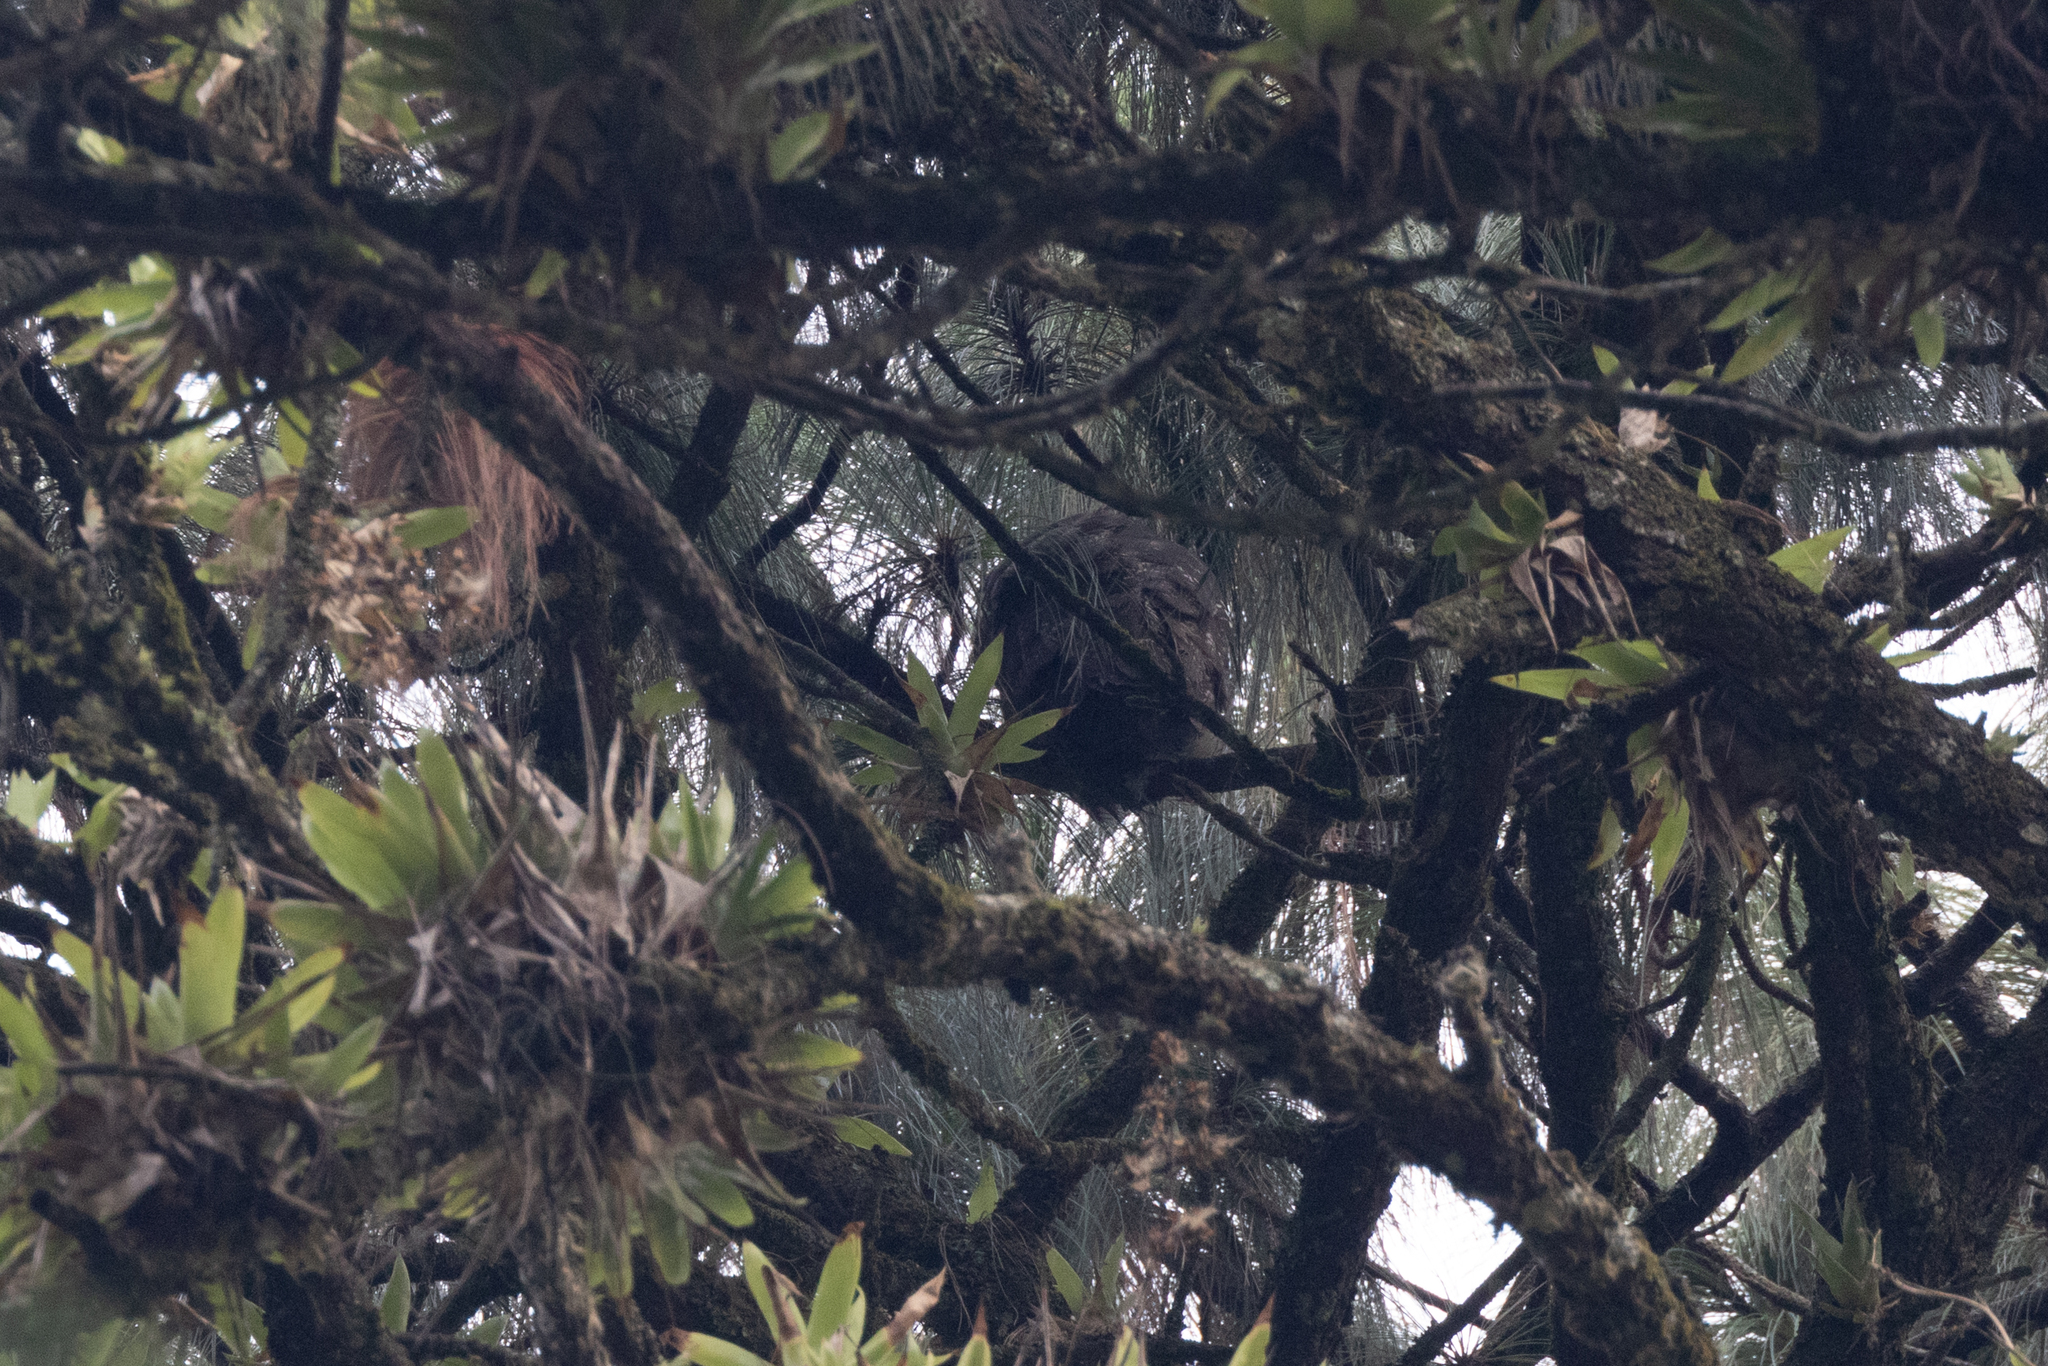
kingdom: Animalia
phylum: Chordata
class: Aves
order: Strigiformes
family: Strigidae
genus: Asio
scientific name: Asio stygius
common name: Stygian owl
